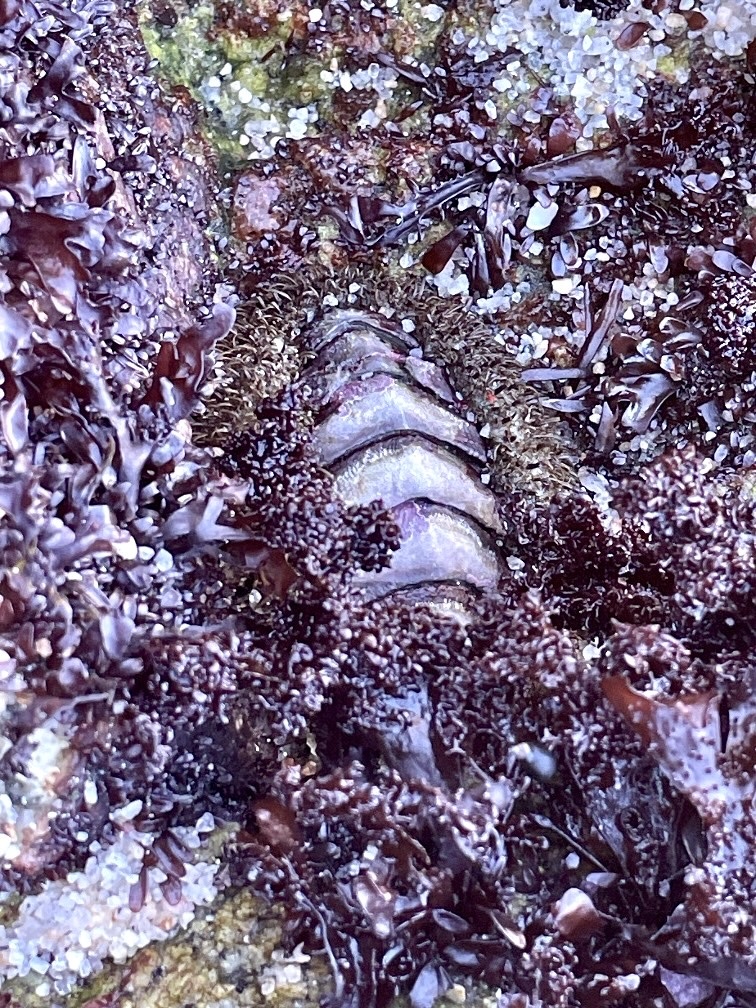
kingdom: Animalia
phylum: Mollusca
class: Polyplacophora
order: Chitonida
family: Mopaliidae
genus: Mopalia
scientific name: Mopalia muscosa
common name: Mossy chiton
